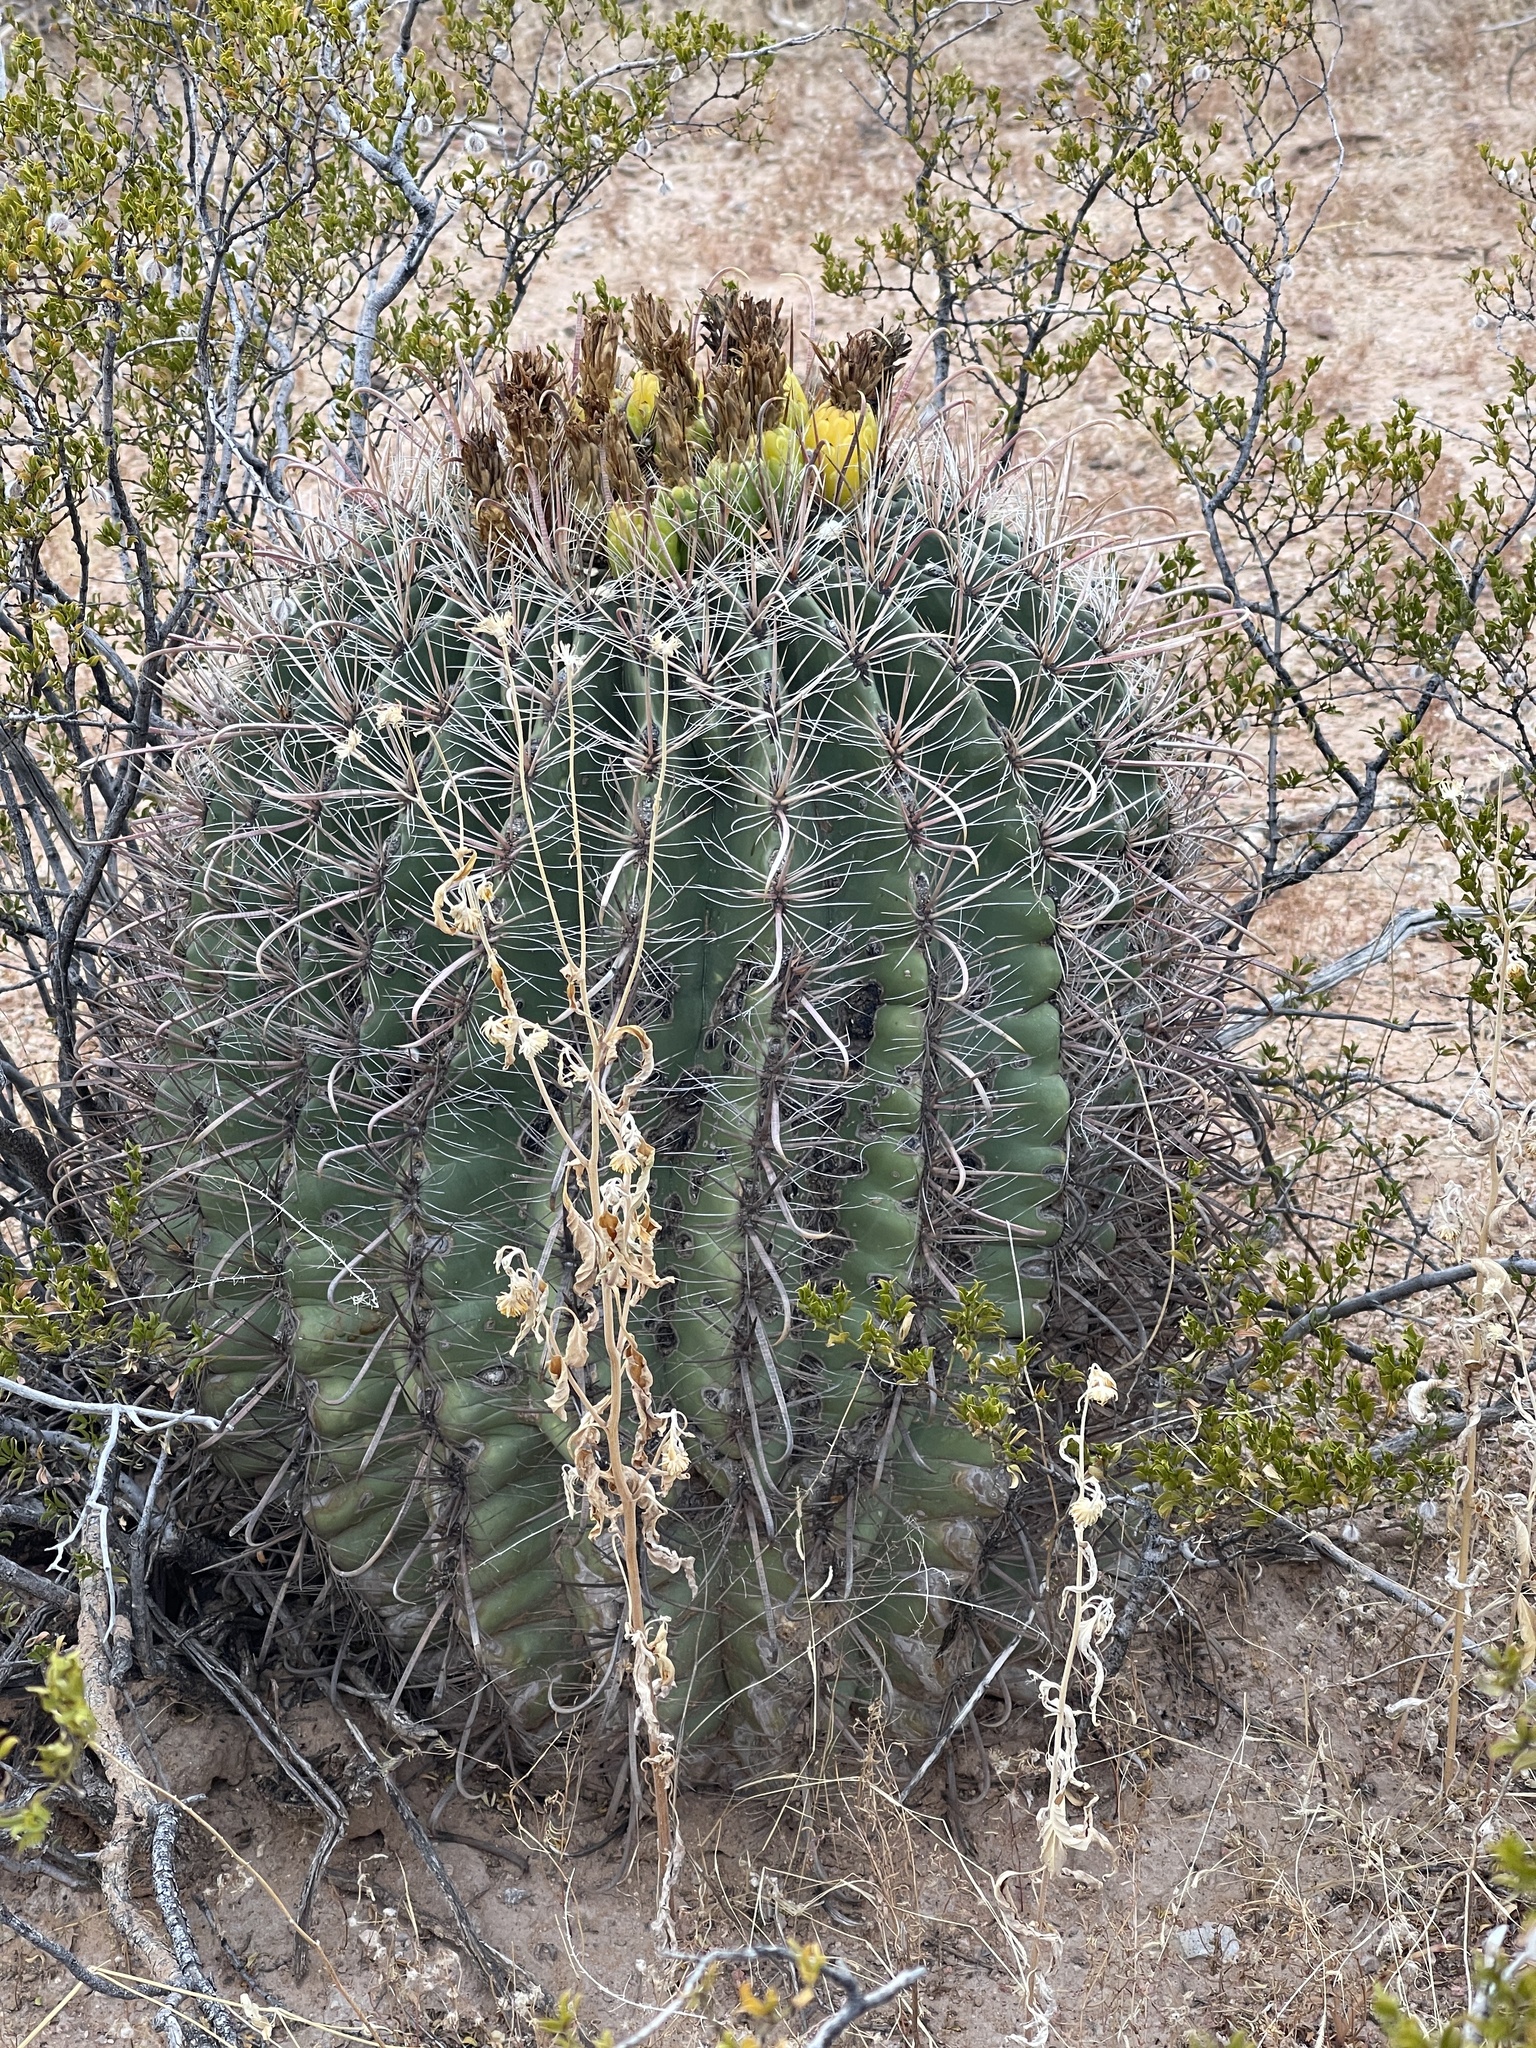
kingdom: Plantae
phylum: Tracheophyta
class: Magnoliopsida
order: Caryophyllales
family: Cactaceae
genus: Ferocactus
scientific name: Ferocactus wislizeni
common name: Candy barrel cactus
